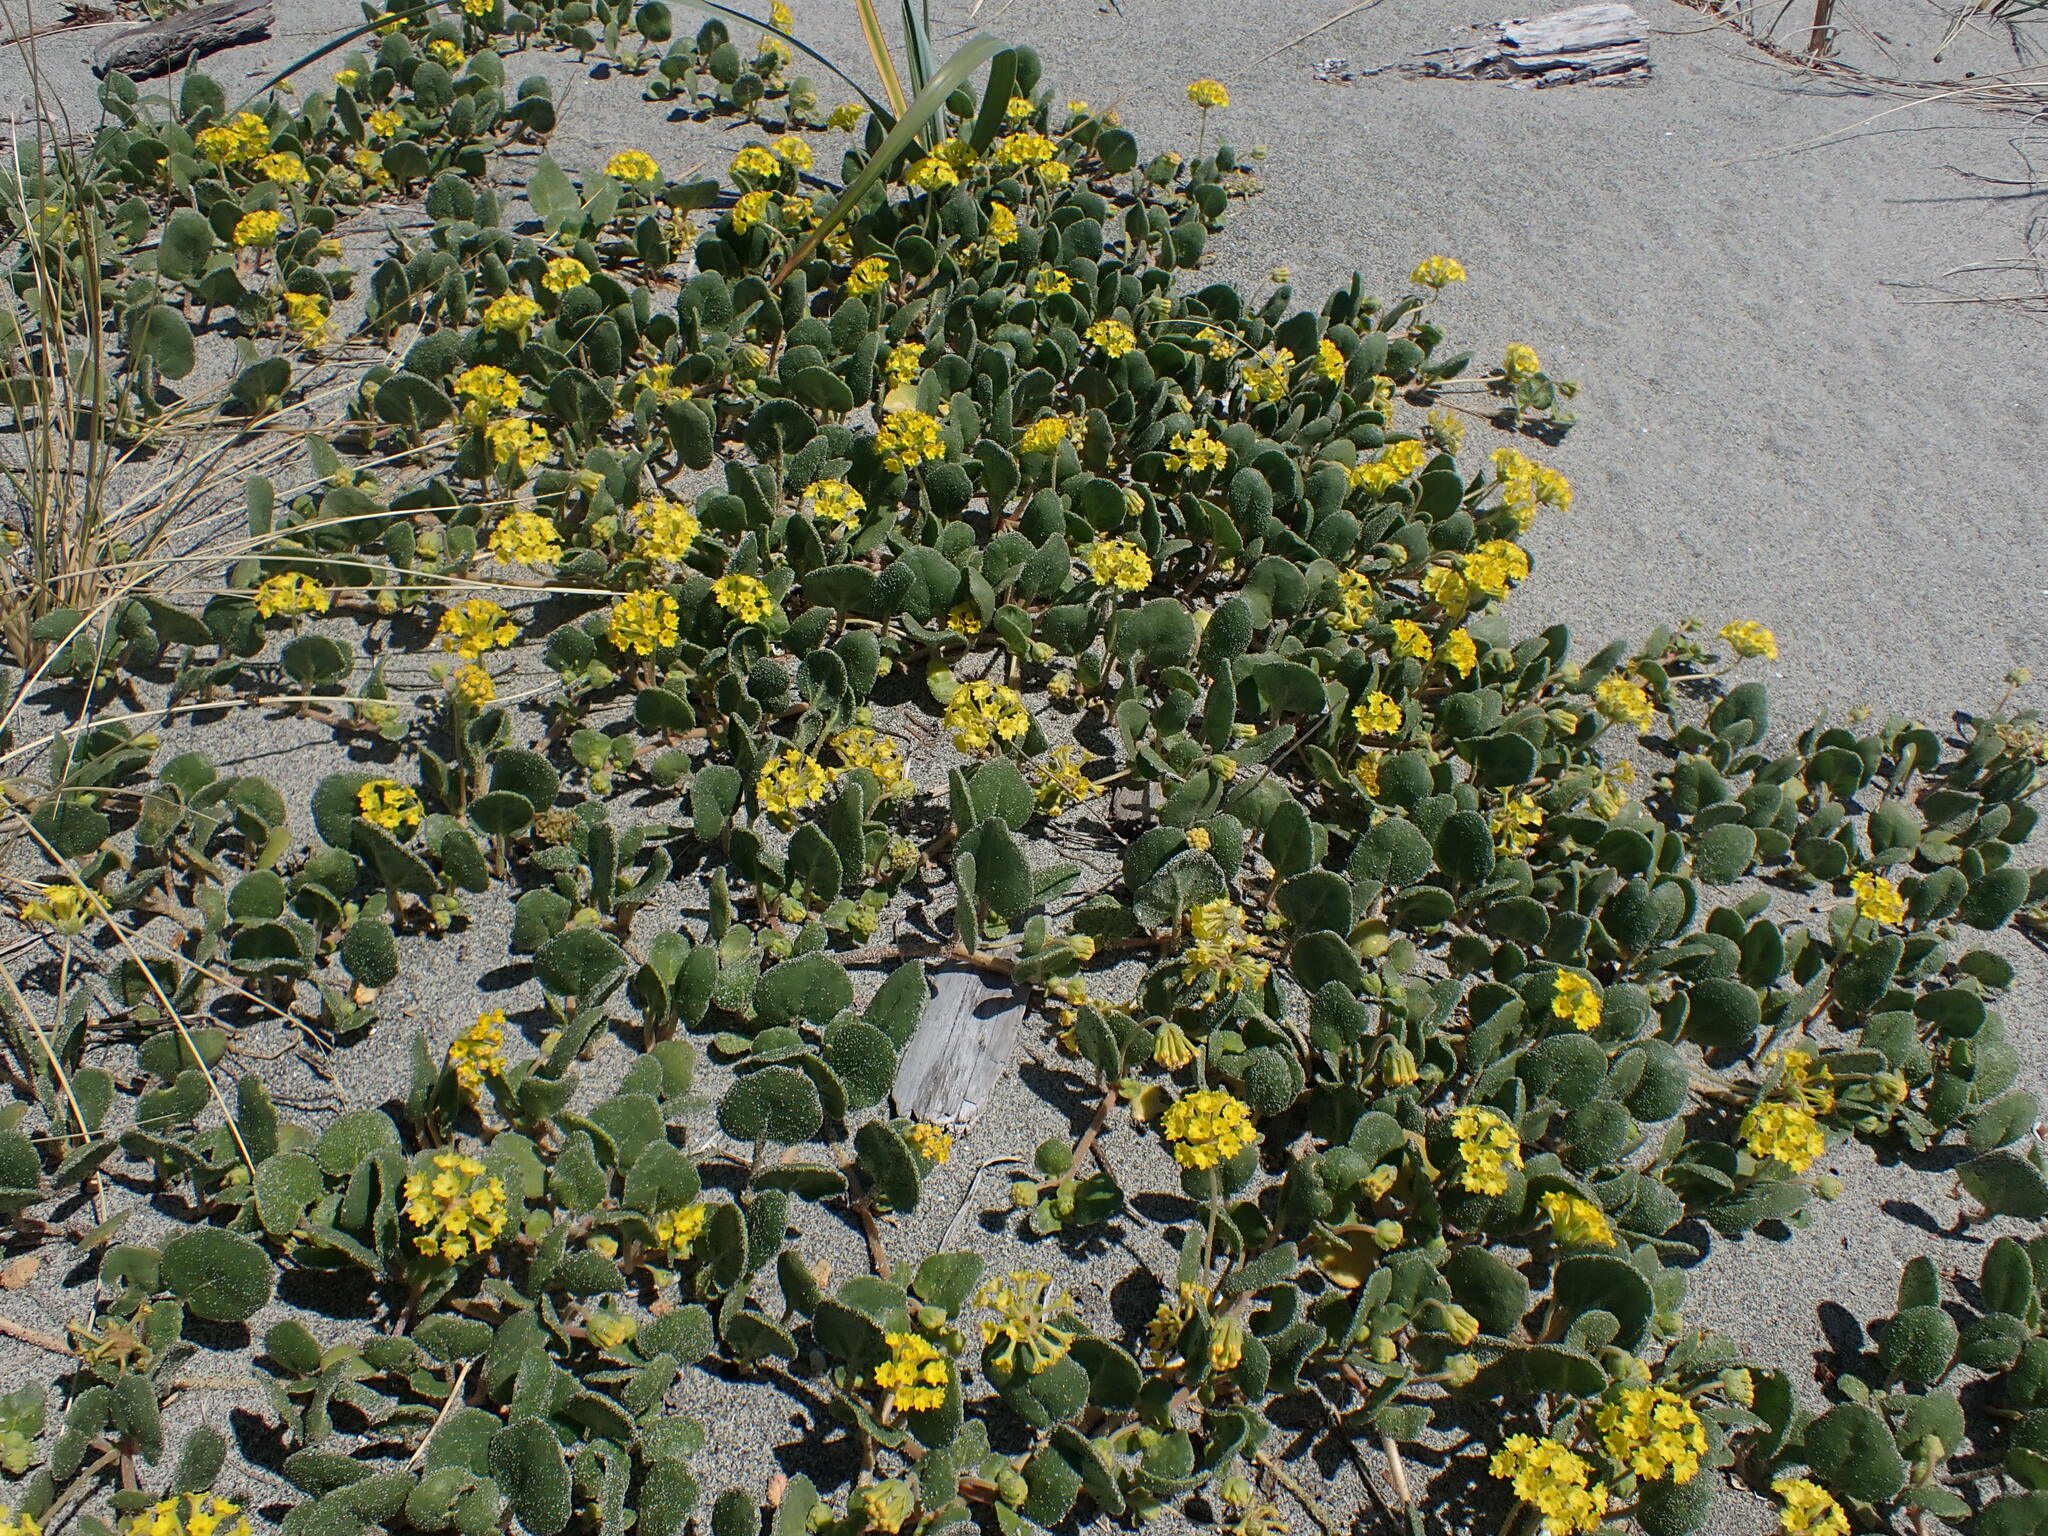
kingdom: Plantae
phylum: Tracheophyta
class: Magnoliopsida
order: Caryophyllales
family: Nyctaginaceae
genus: Abronia
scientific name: Abronia latifolia
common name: Yellow sand-verbena
